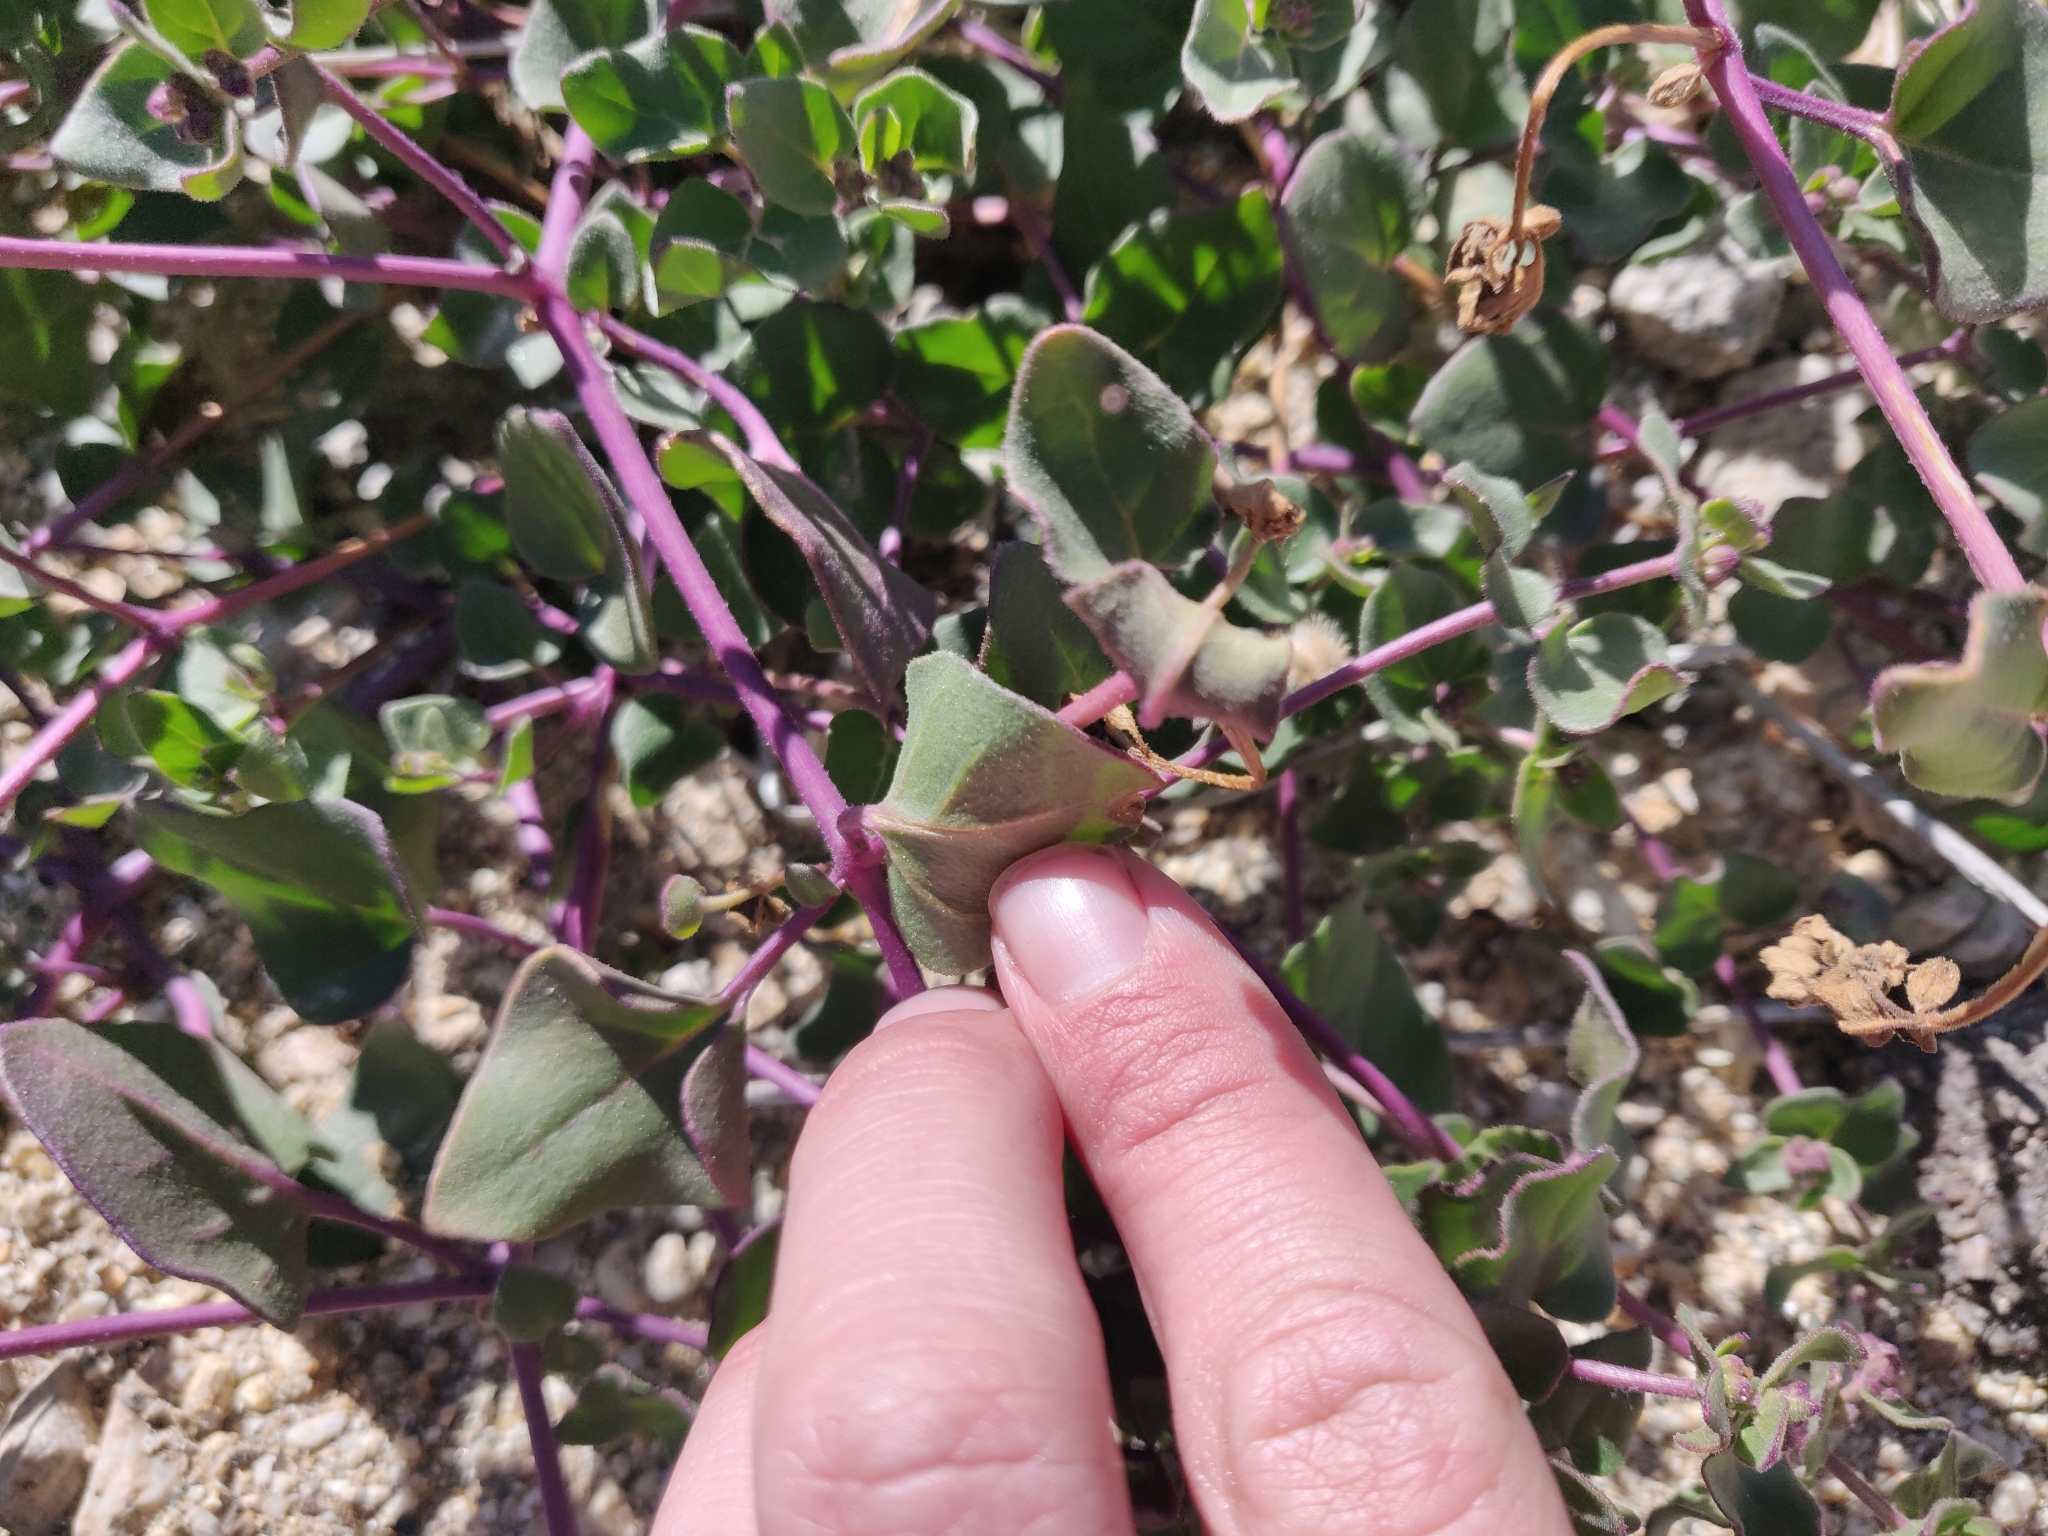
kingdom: Plantae
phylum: Tracheophyta
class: Magnoliopsida
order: Caryophyllales
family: Nyctaginaceae
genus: Mirabilis
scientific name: Mirabilis laevis
